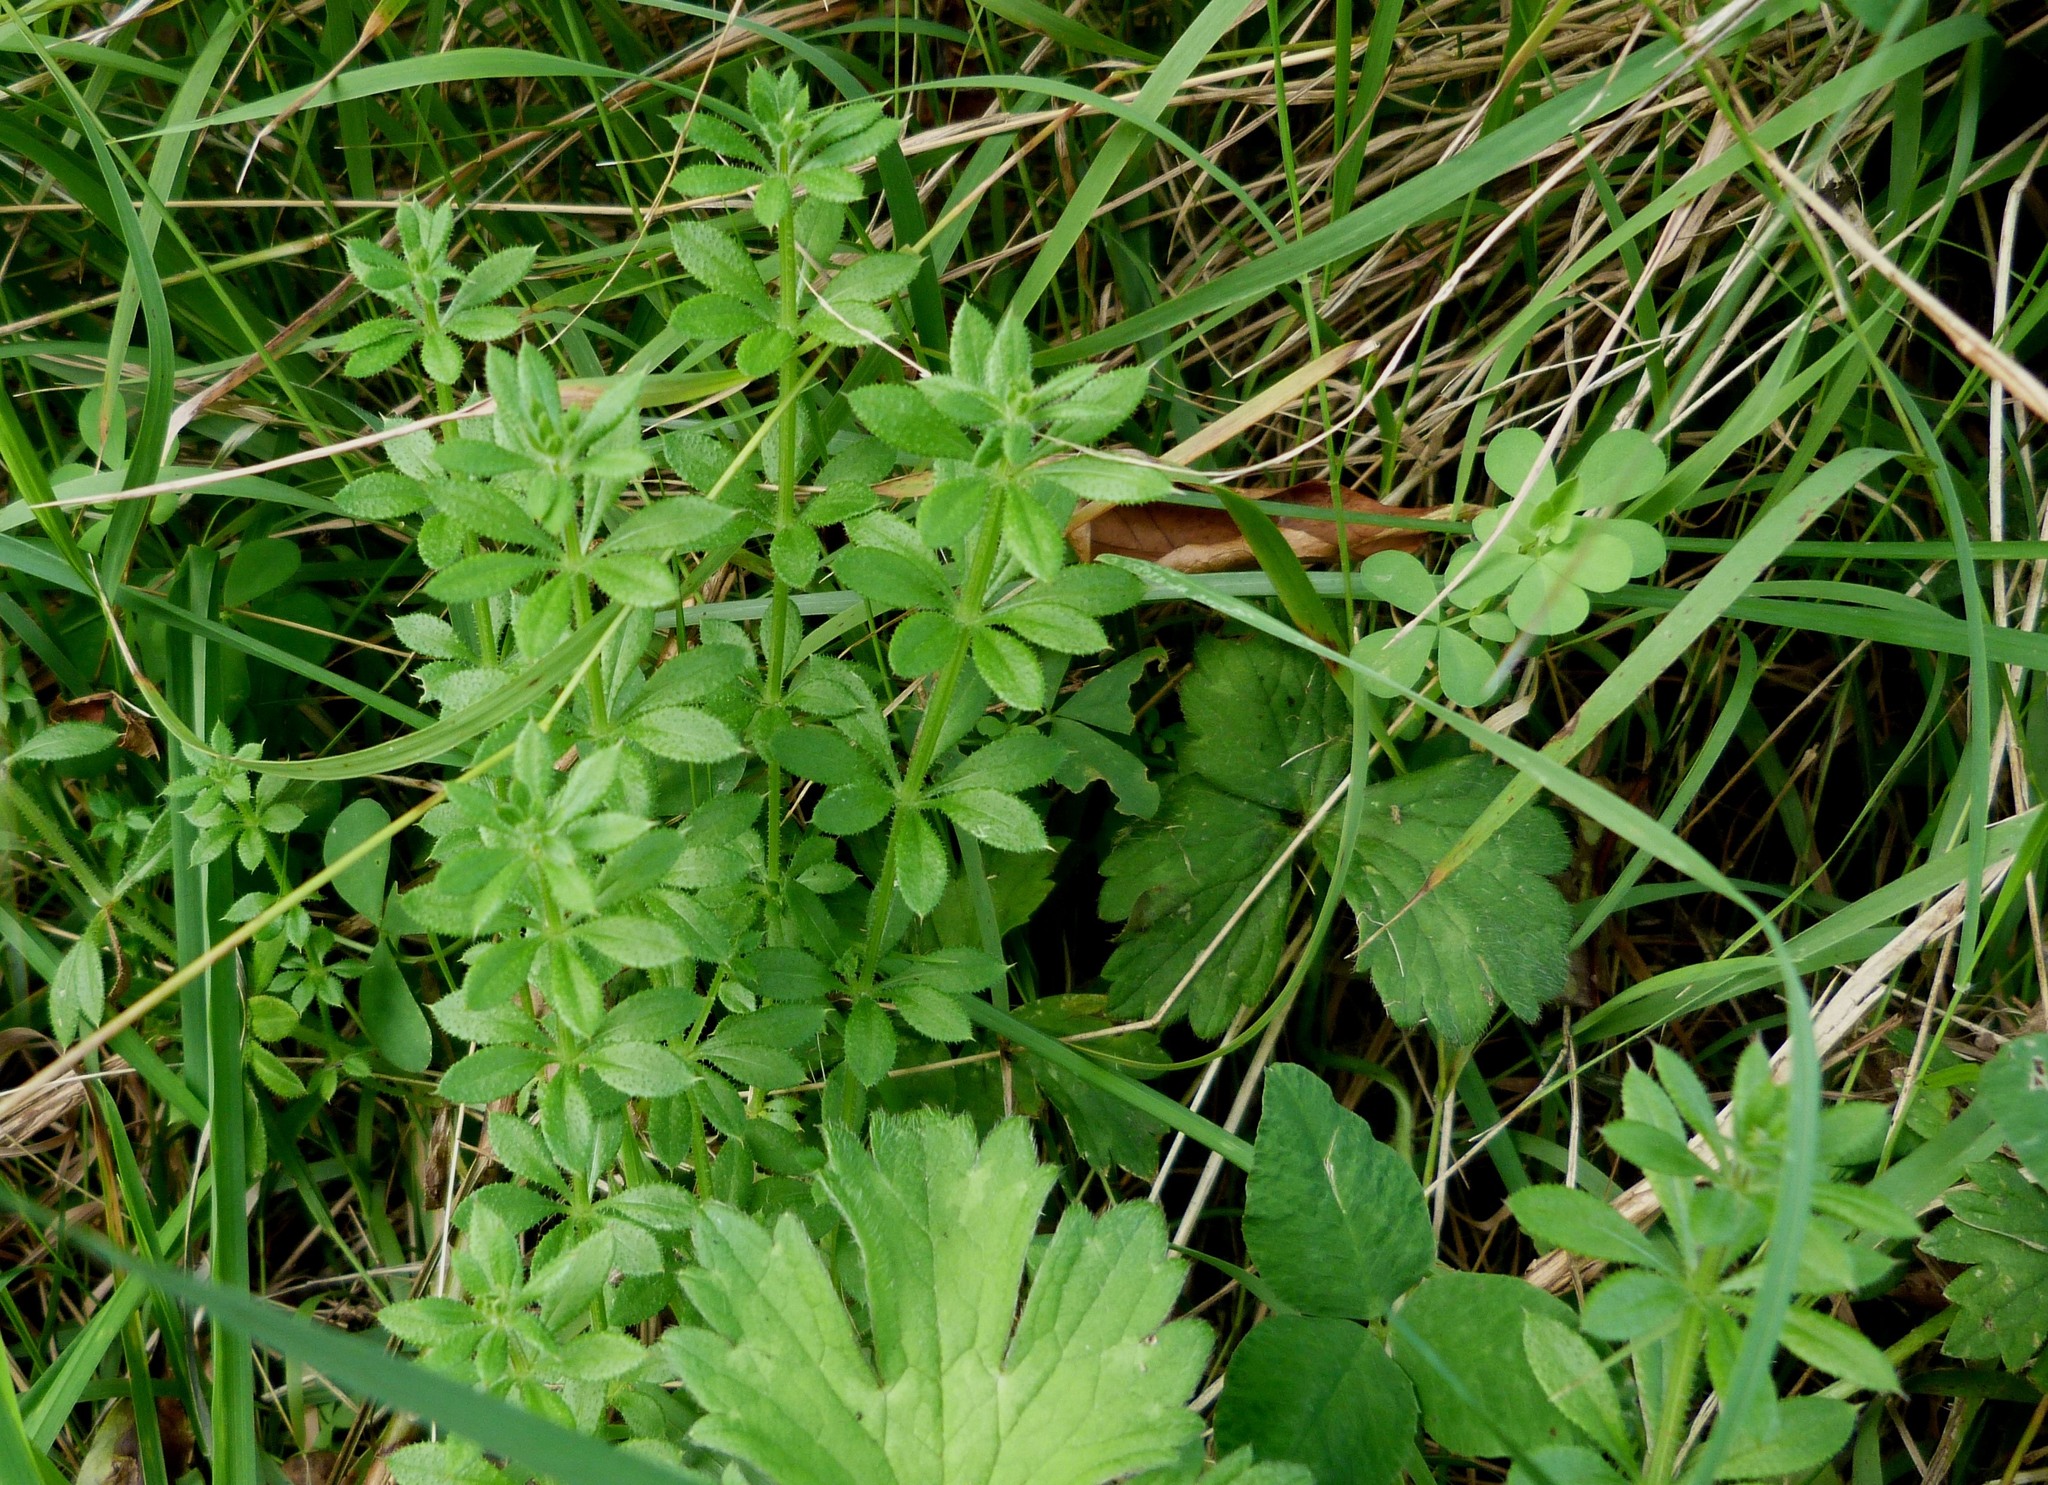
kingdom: Plantae
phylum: Tracheophyta
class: Magnoliopsida
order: Gentianales
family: Rubiaceae
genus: Galium
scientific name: Galium aparine
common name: Cleavers
